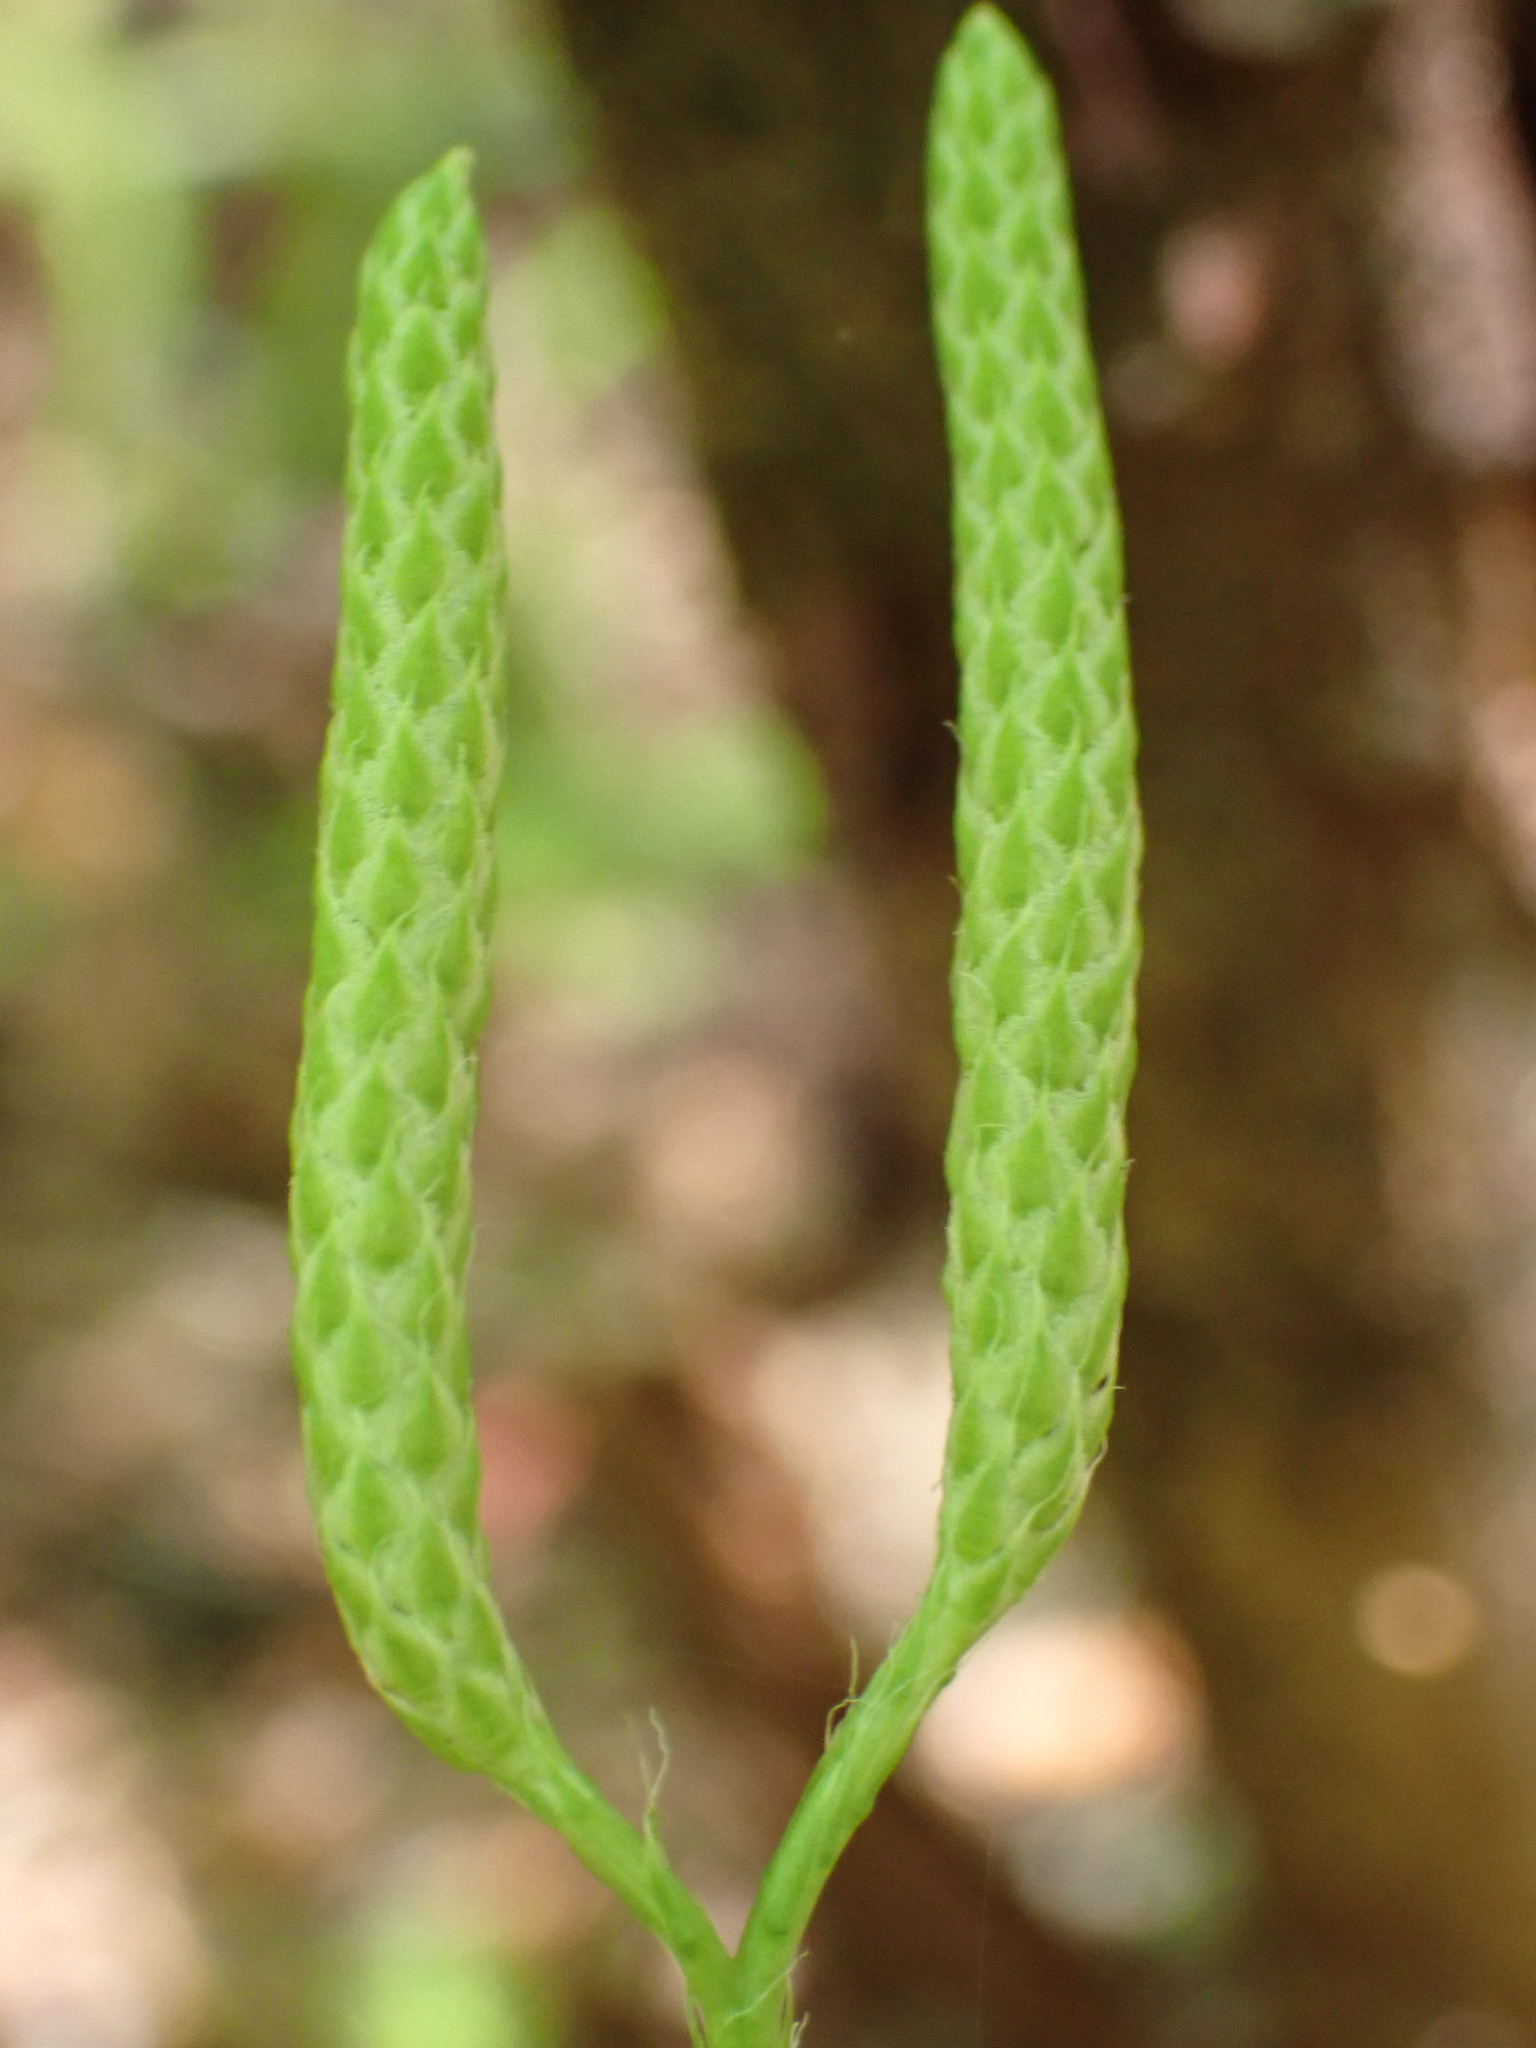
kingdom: Plantae
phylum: Tracheophyta
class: Lycopodiopsida
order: Lycopodiales
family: Lycopodiaceae
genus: Lycopodium
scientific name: Lycopodium clavatum
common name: Stag's-horn clubmoss
